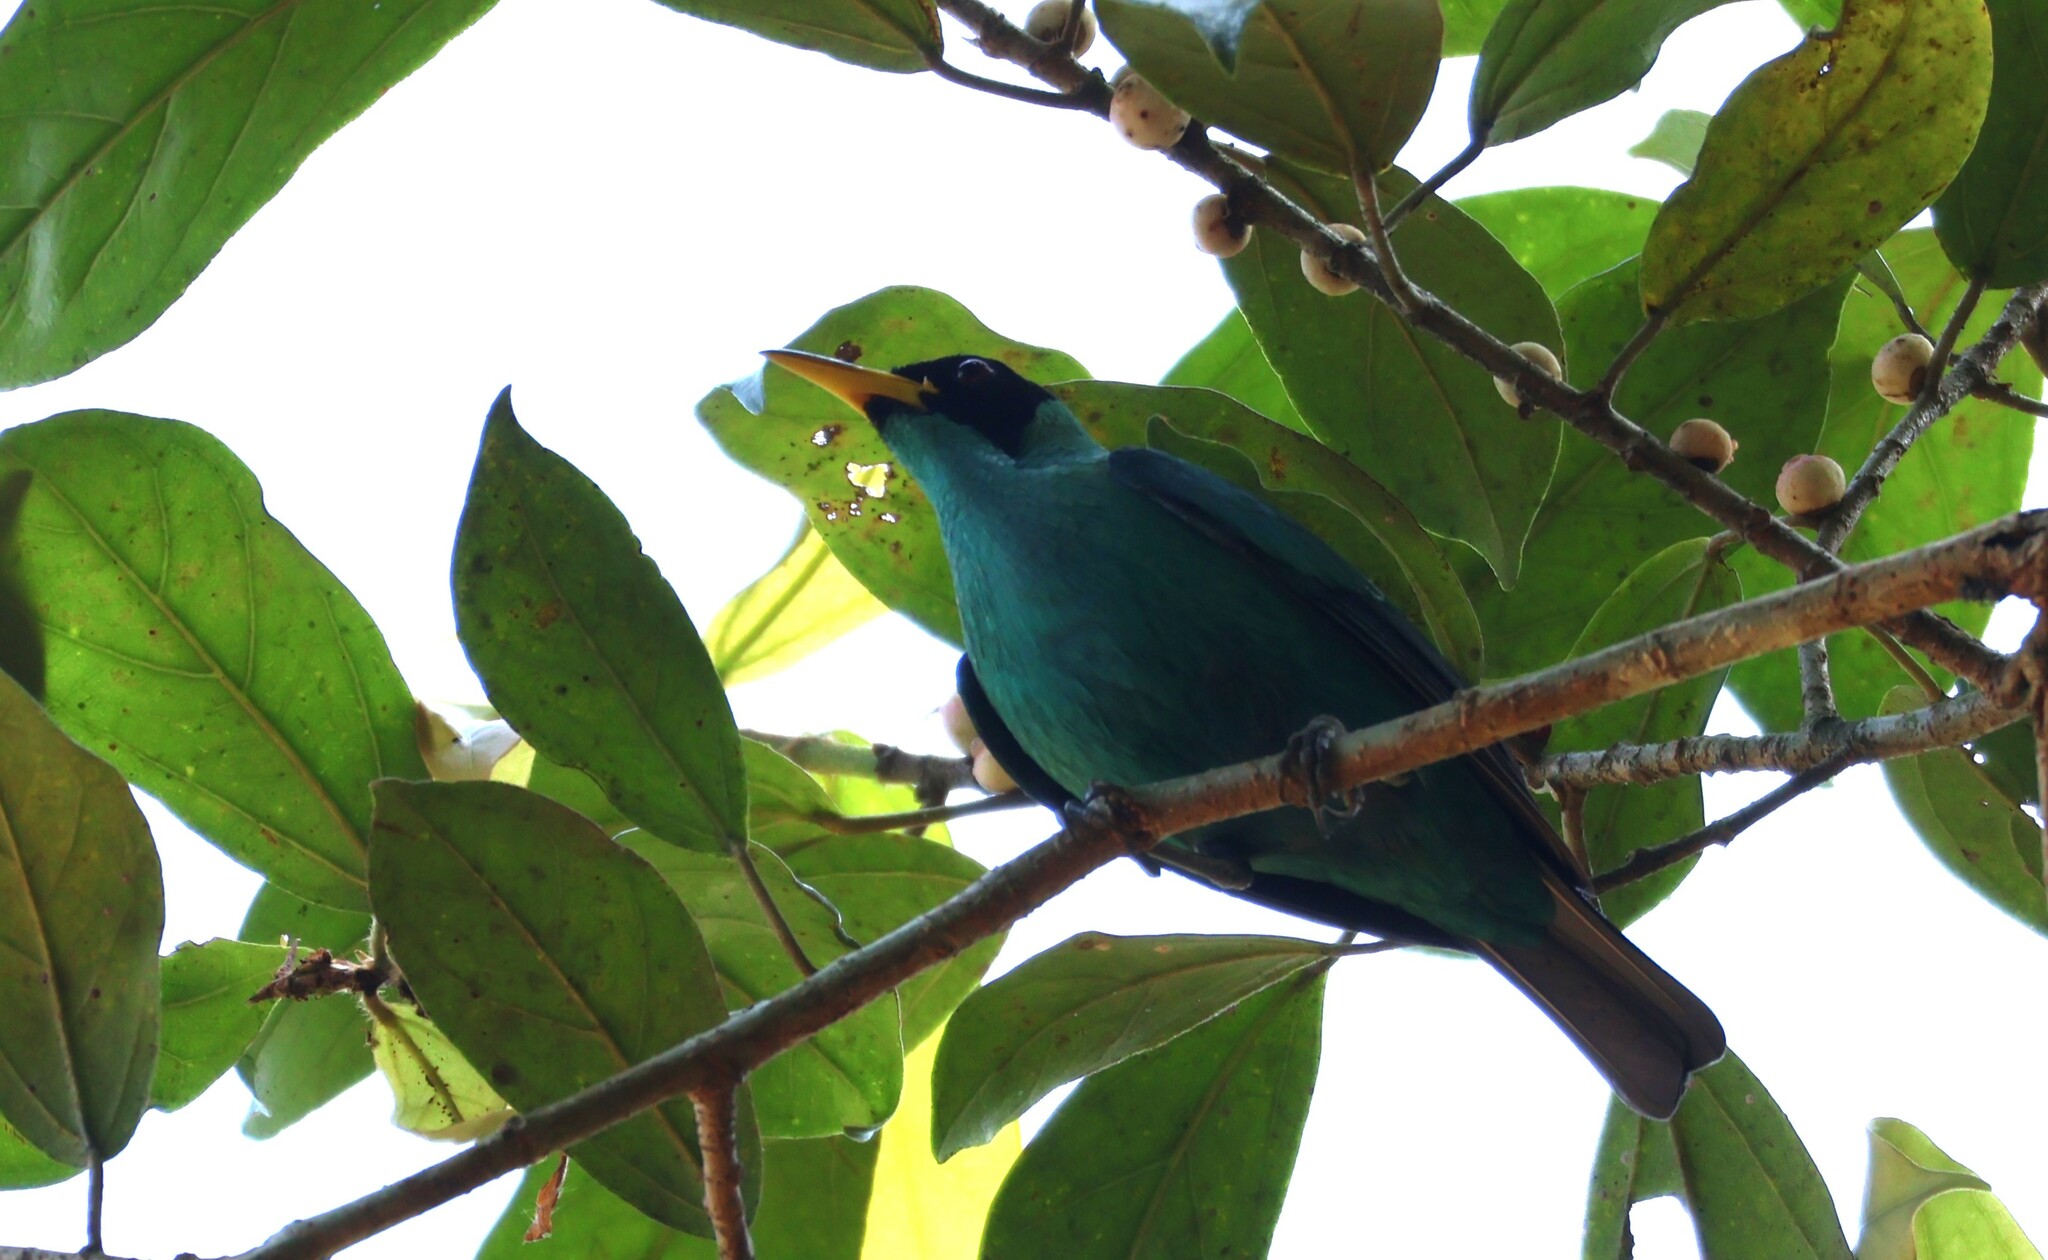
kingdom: Animalia
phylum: Chordata
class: Aves
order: Passeriformes
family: Thraupidae
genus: Chlorophanes
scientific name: Chlorophanes spiza
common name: Green honeycreeper
